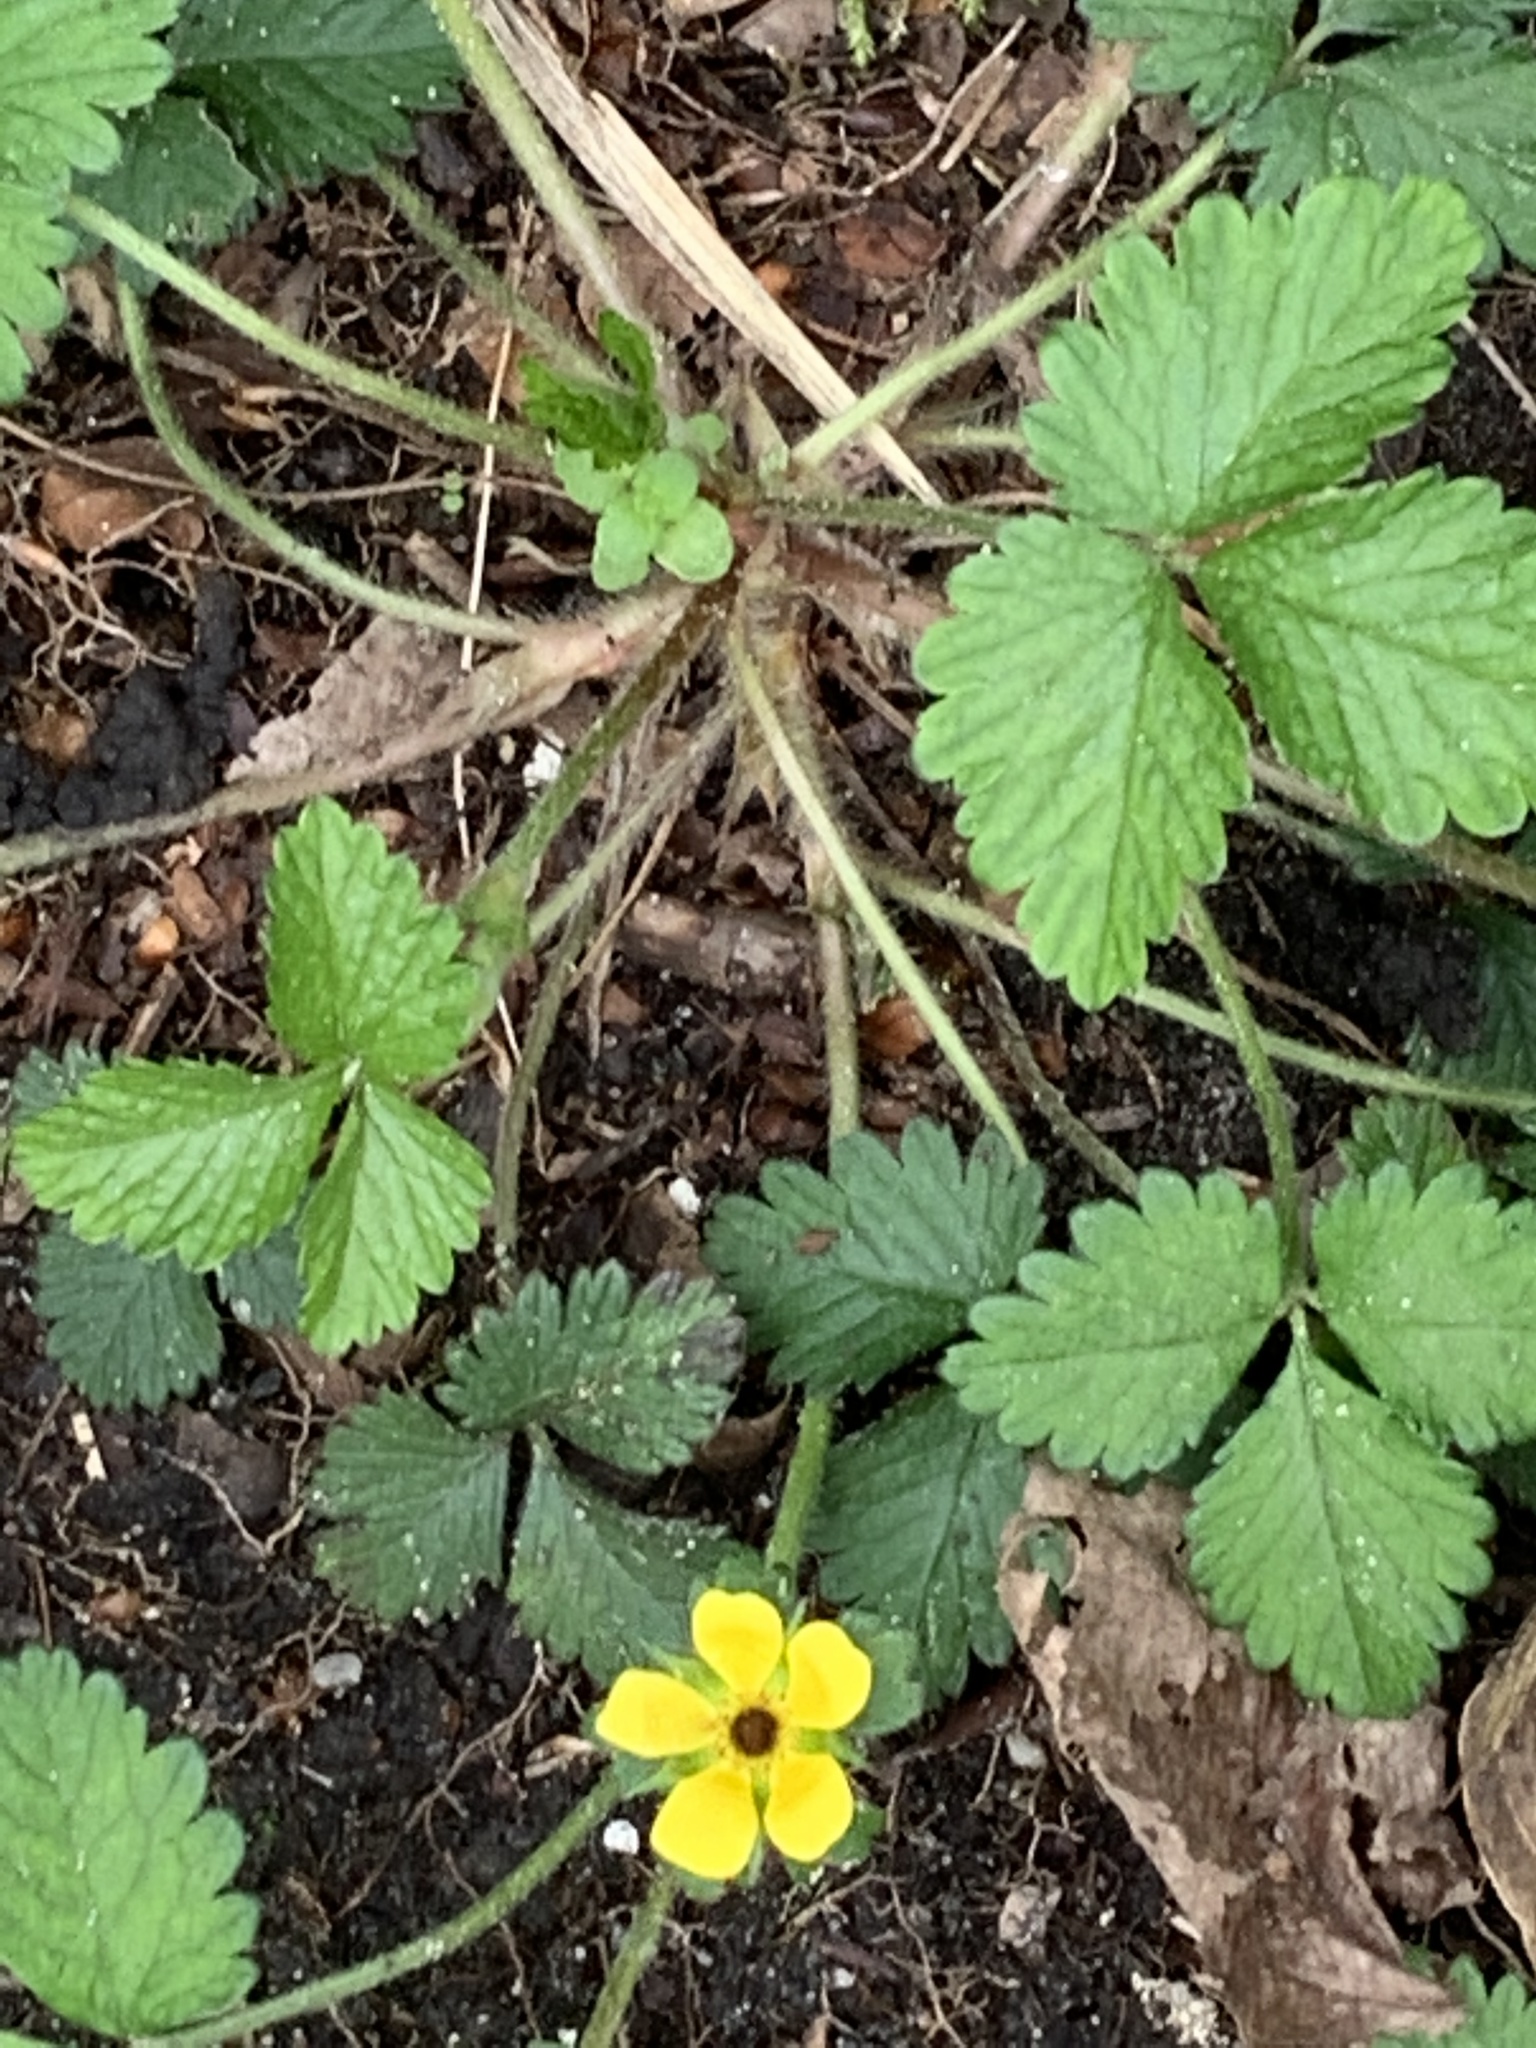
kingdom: Plantae
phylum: Tracheophyta
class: Magnoliopsida
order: Rosales
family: Rosaceae
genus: Potentilla
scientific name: Potentilla indica
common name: Yellow-flowered strawberry
